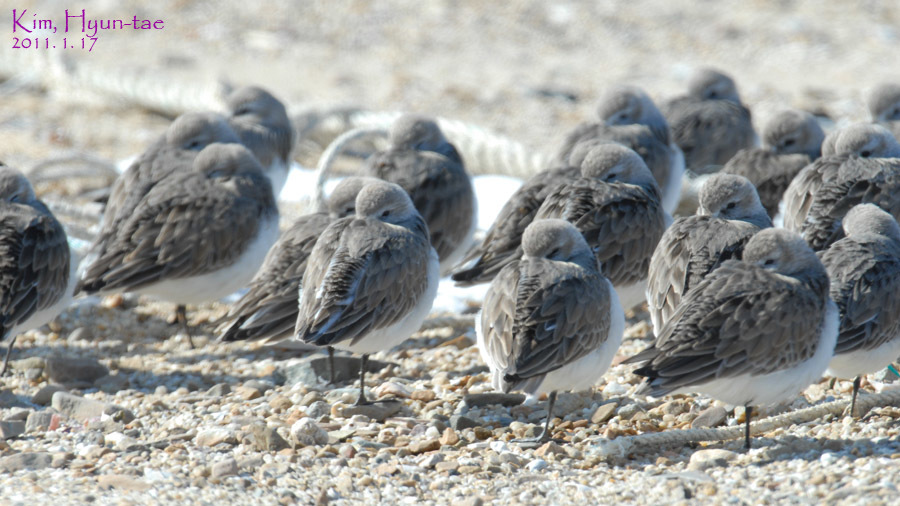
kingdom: Animalia
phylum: Chordata
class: Aves
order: Charadriiformes
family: Scolopacidae
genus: Calidris
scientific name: Calidris alpina
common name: Dunlin
